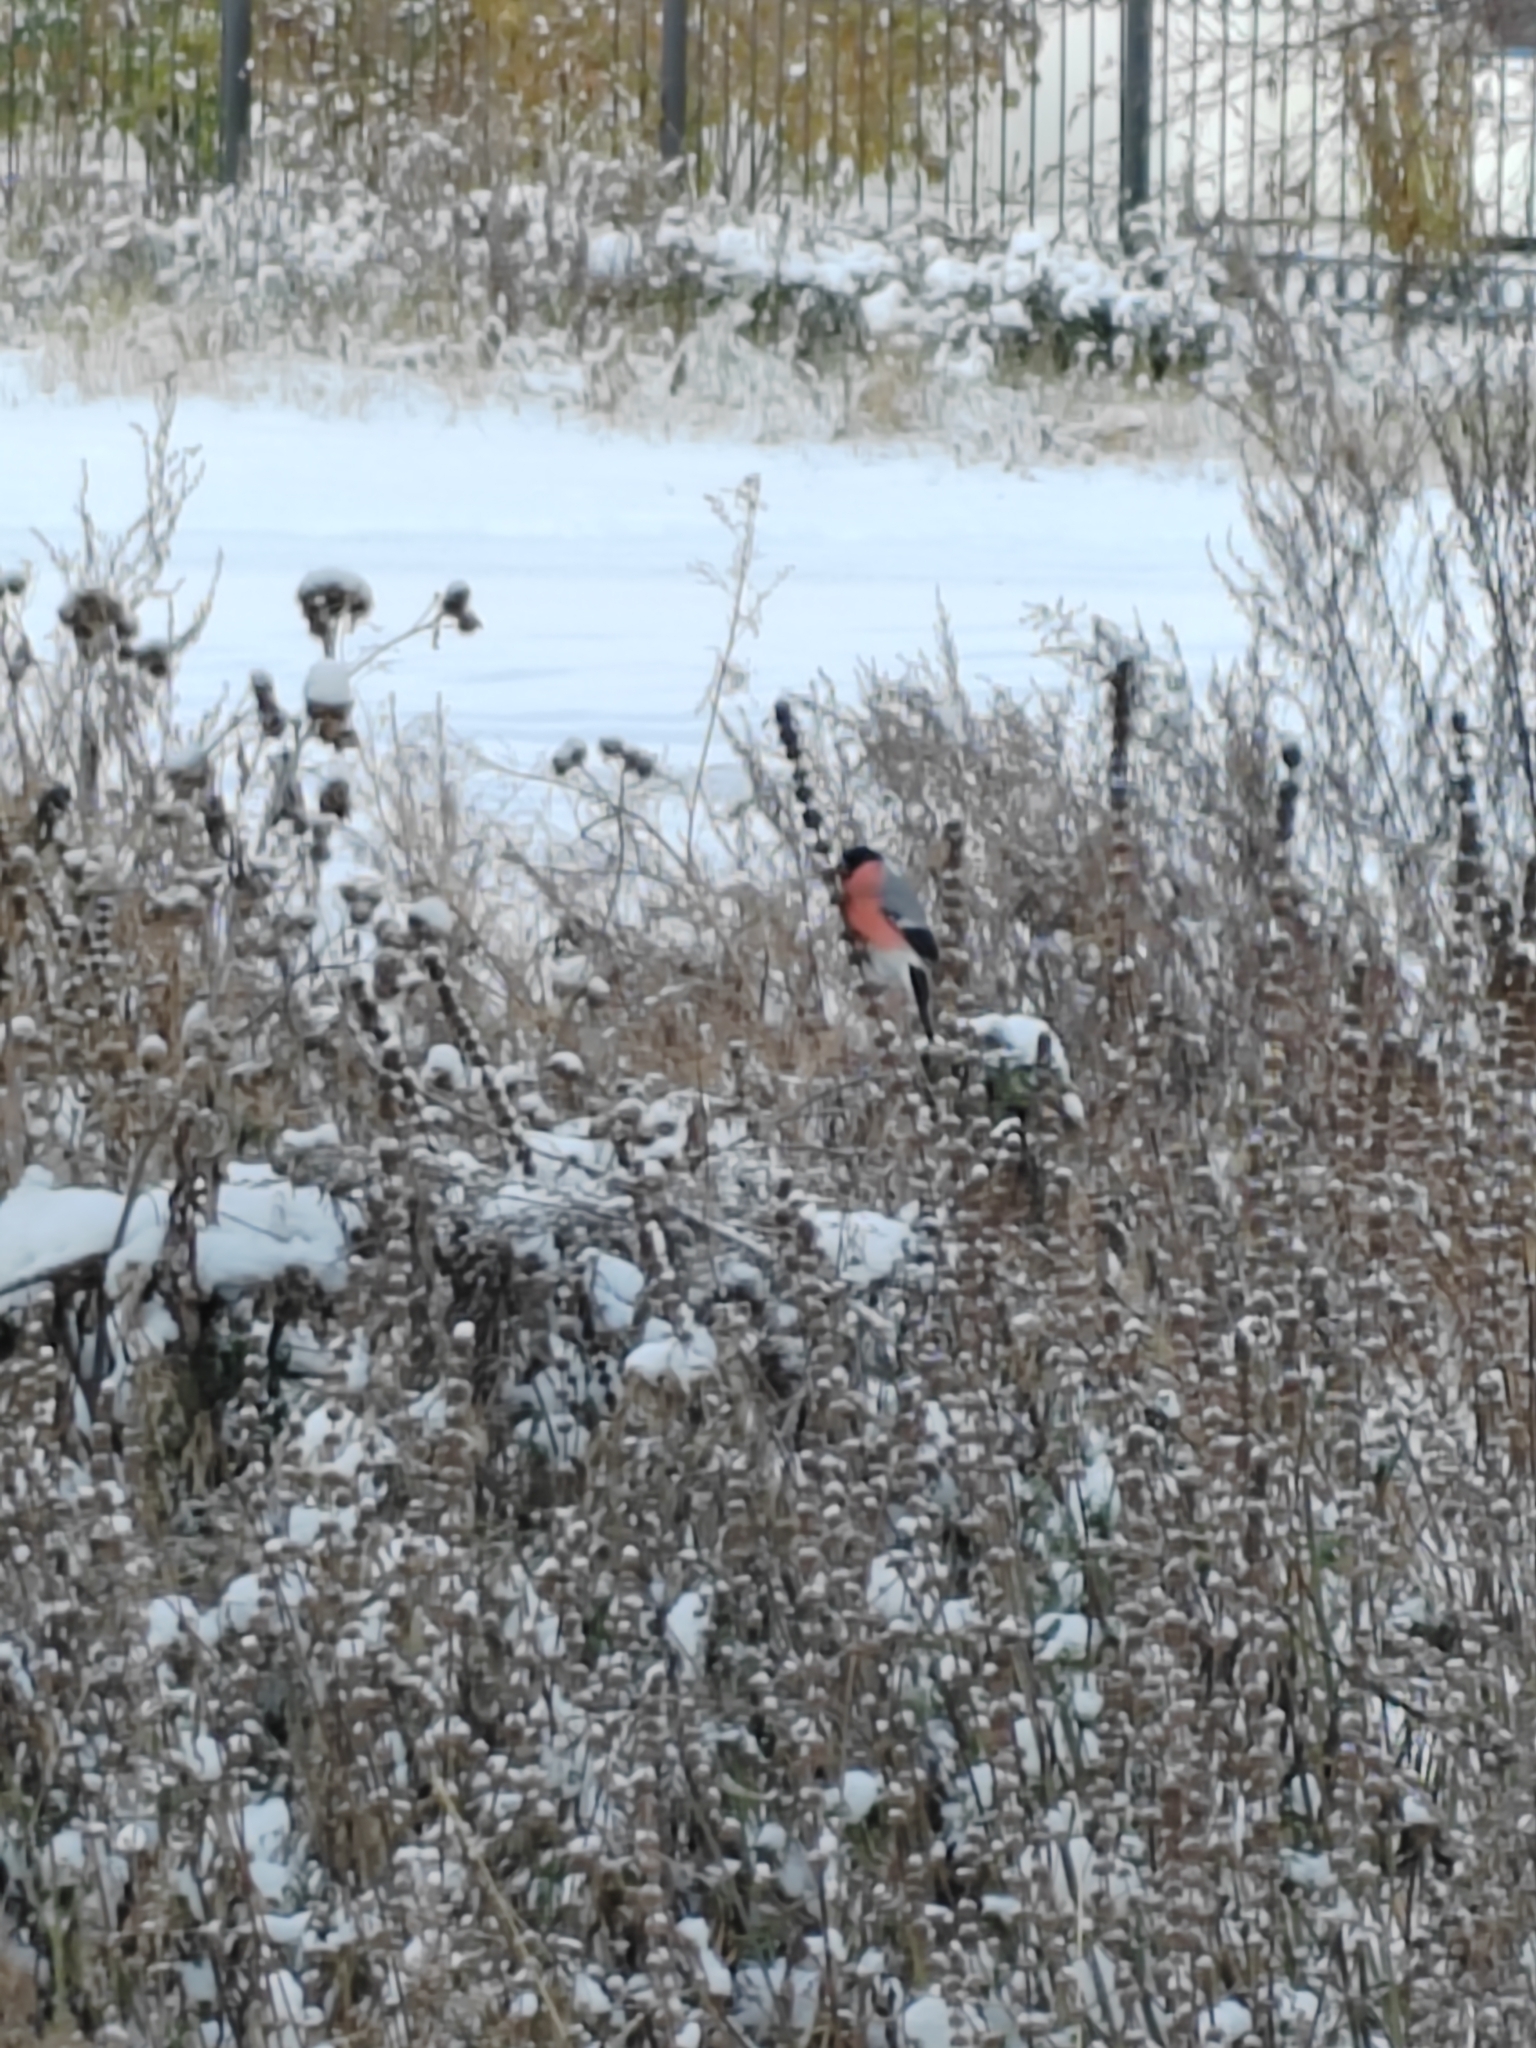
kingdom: Animalia
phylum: Chordata
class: Aves
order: Passeriformes
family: Fringillidae
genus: Pyrrhula
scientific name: Pyrrhula pyrrhula
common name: Eurasian bullfinch
